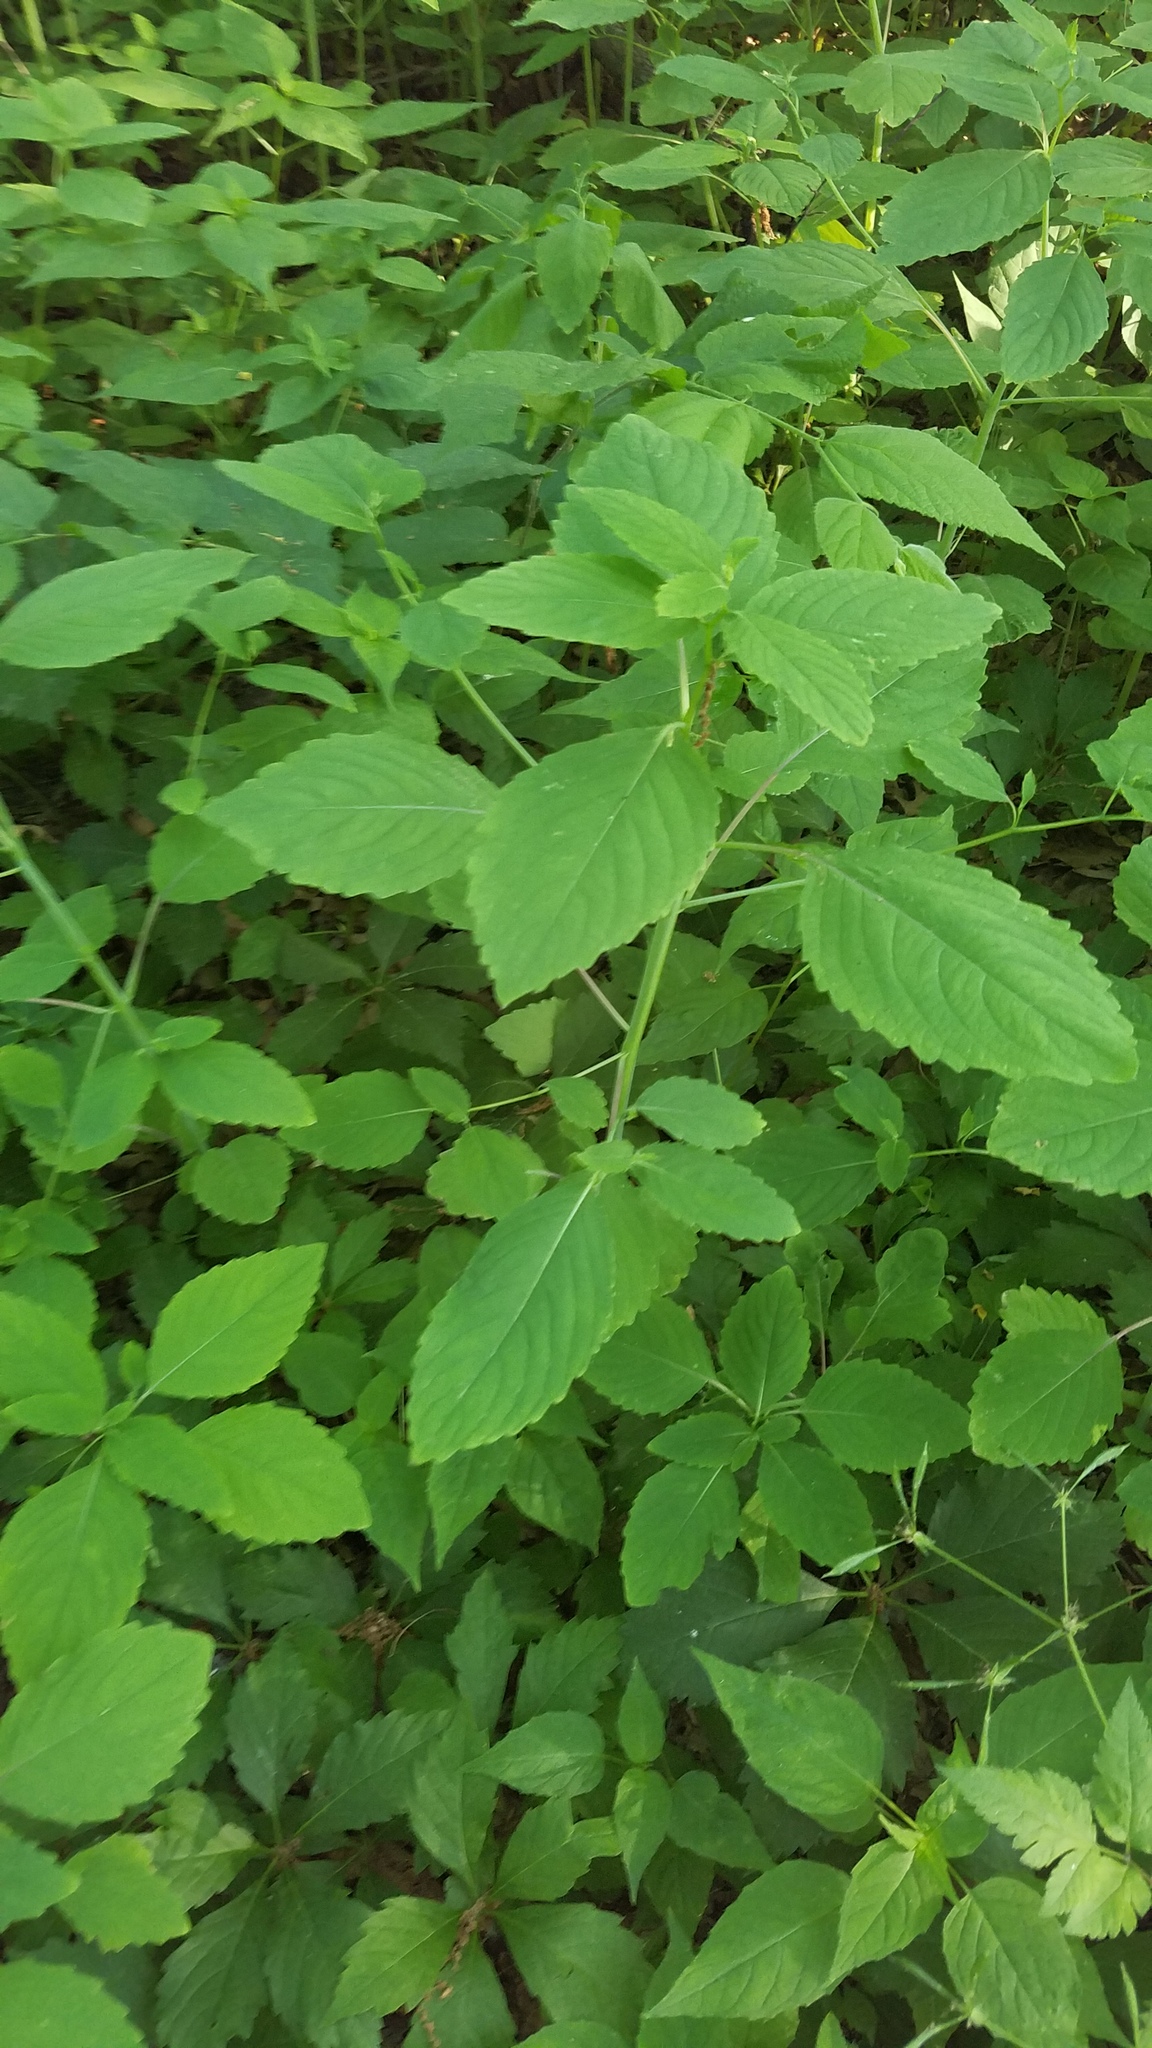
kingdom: Plantae
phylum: Tracheophyta
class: Magnoliopsida
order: Ericales
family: Balsaminaceae
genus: Impatiens
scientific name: Impatiens pallida
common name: Pale snapweed
